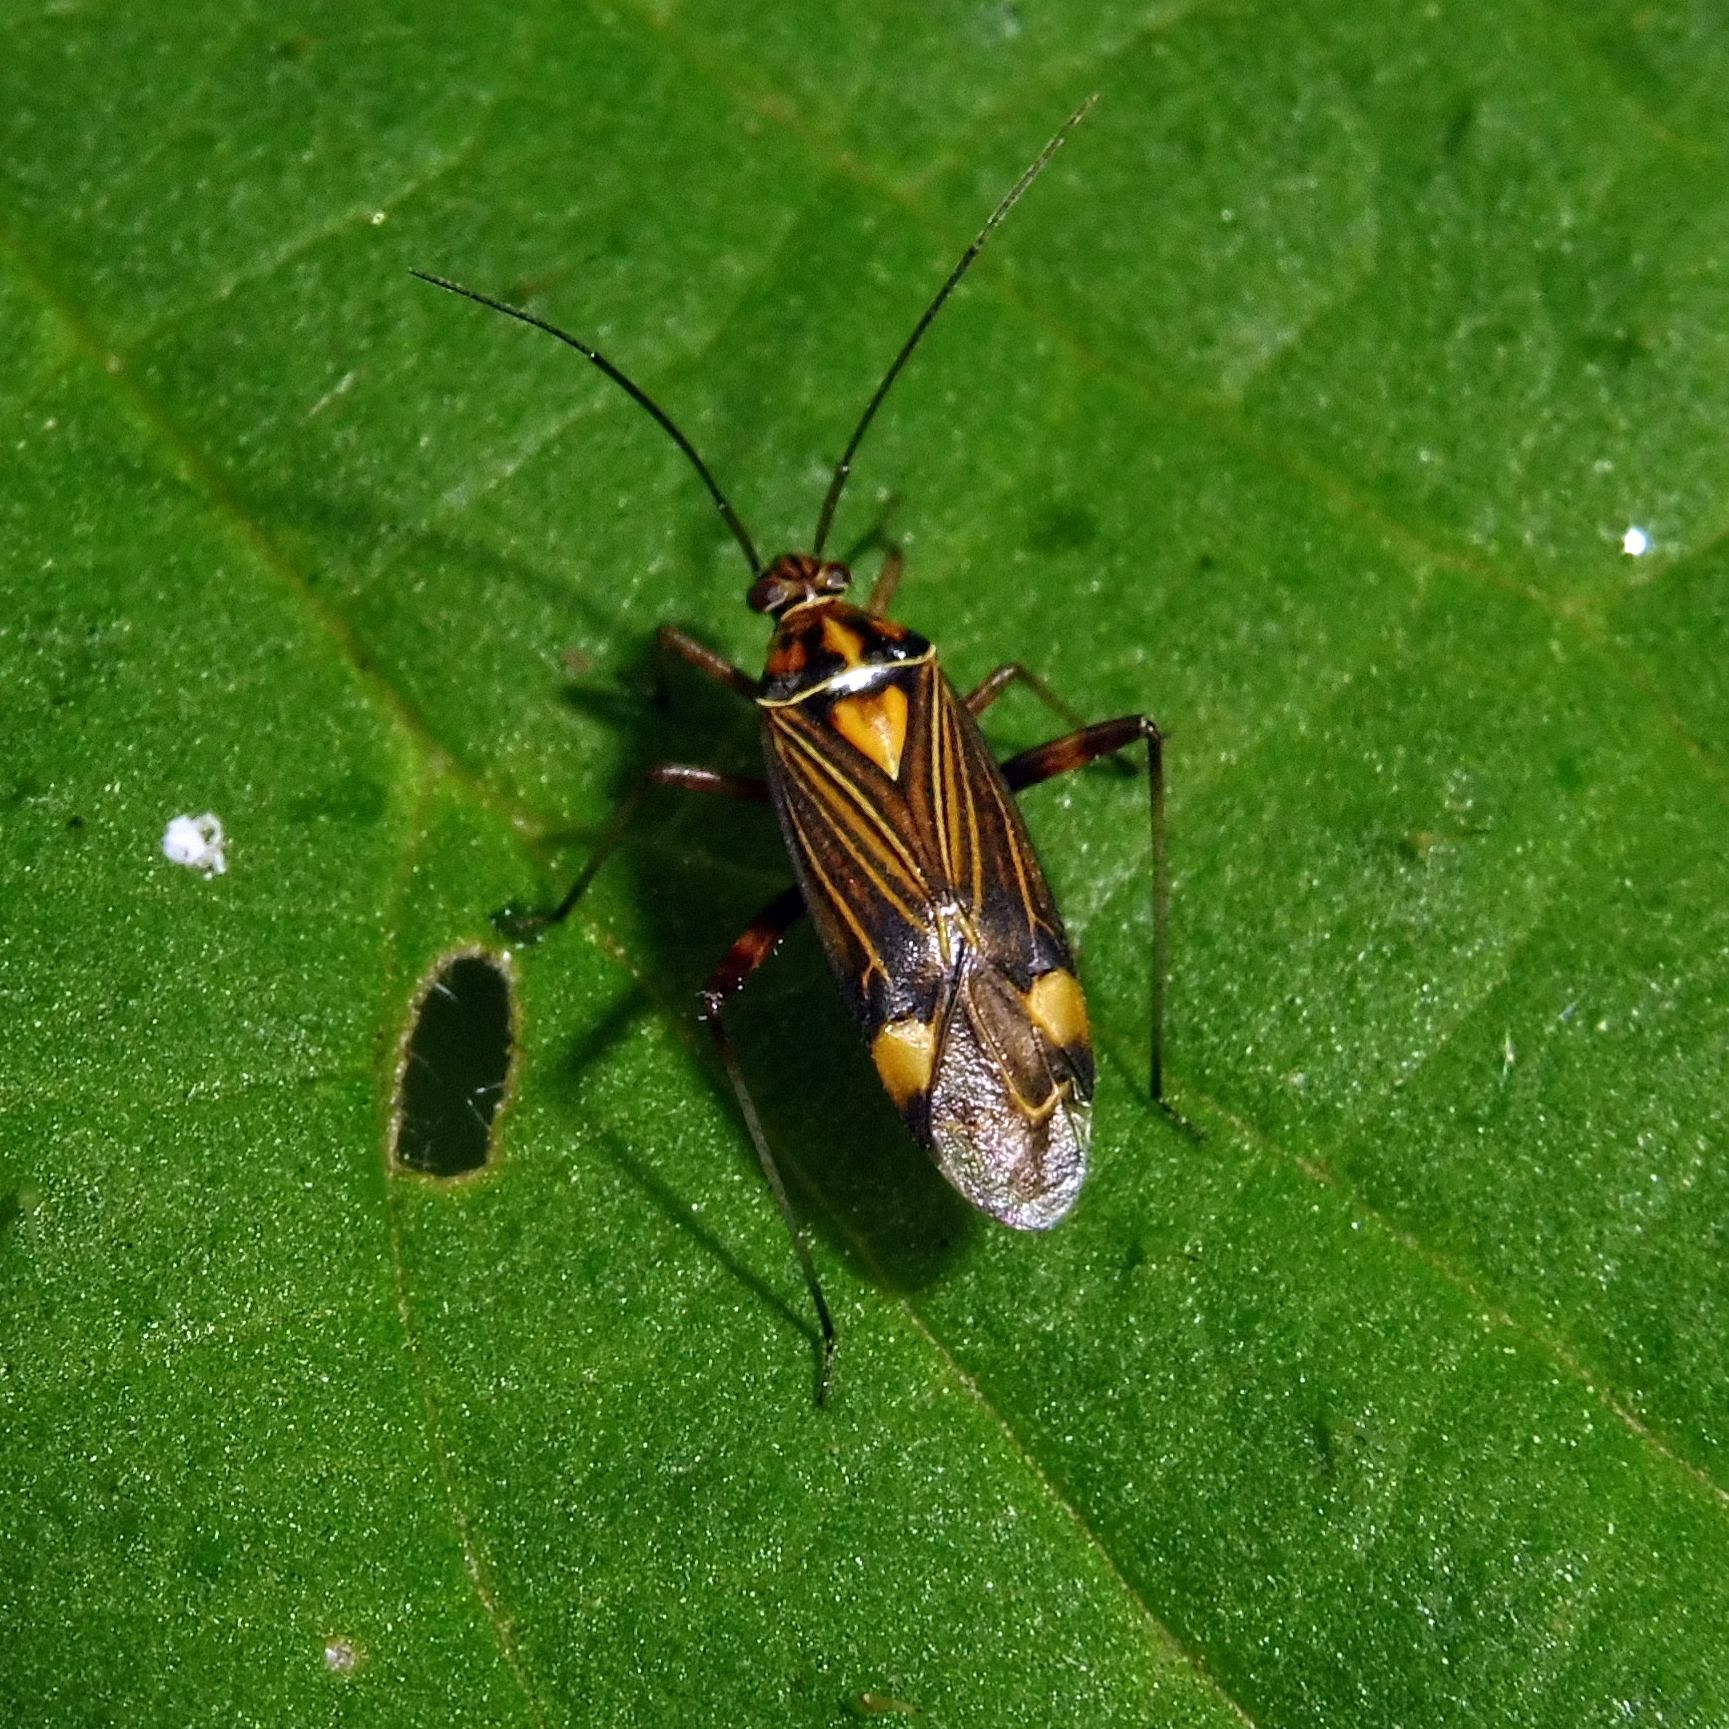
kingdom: Animalia
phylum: Arthropoda
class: Insecta
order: Hemiptera
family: Miridae
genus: Rhabdomiris
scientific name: Rhabdomiris striatellus
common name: Plant bug
